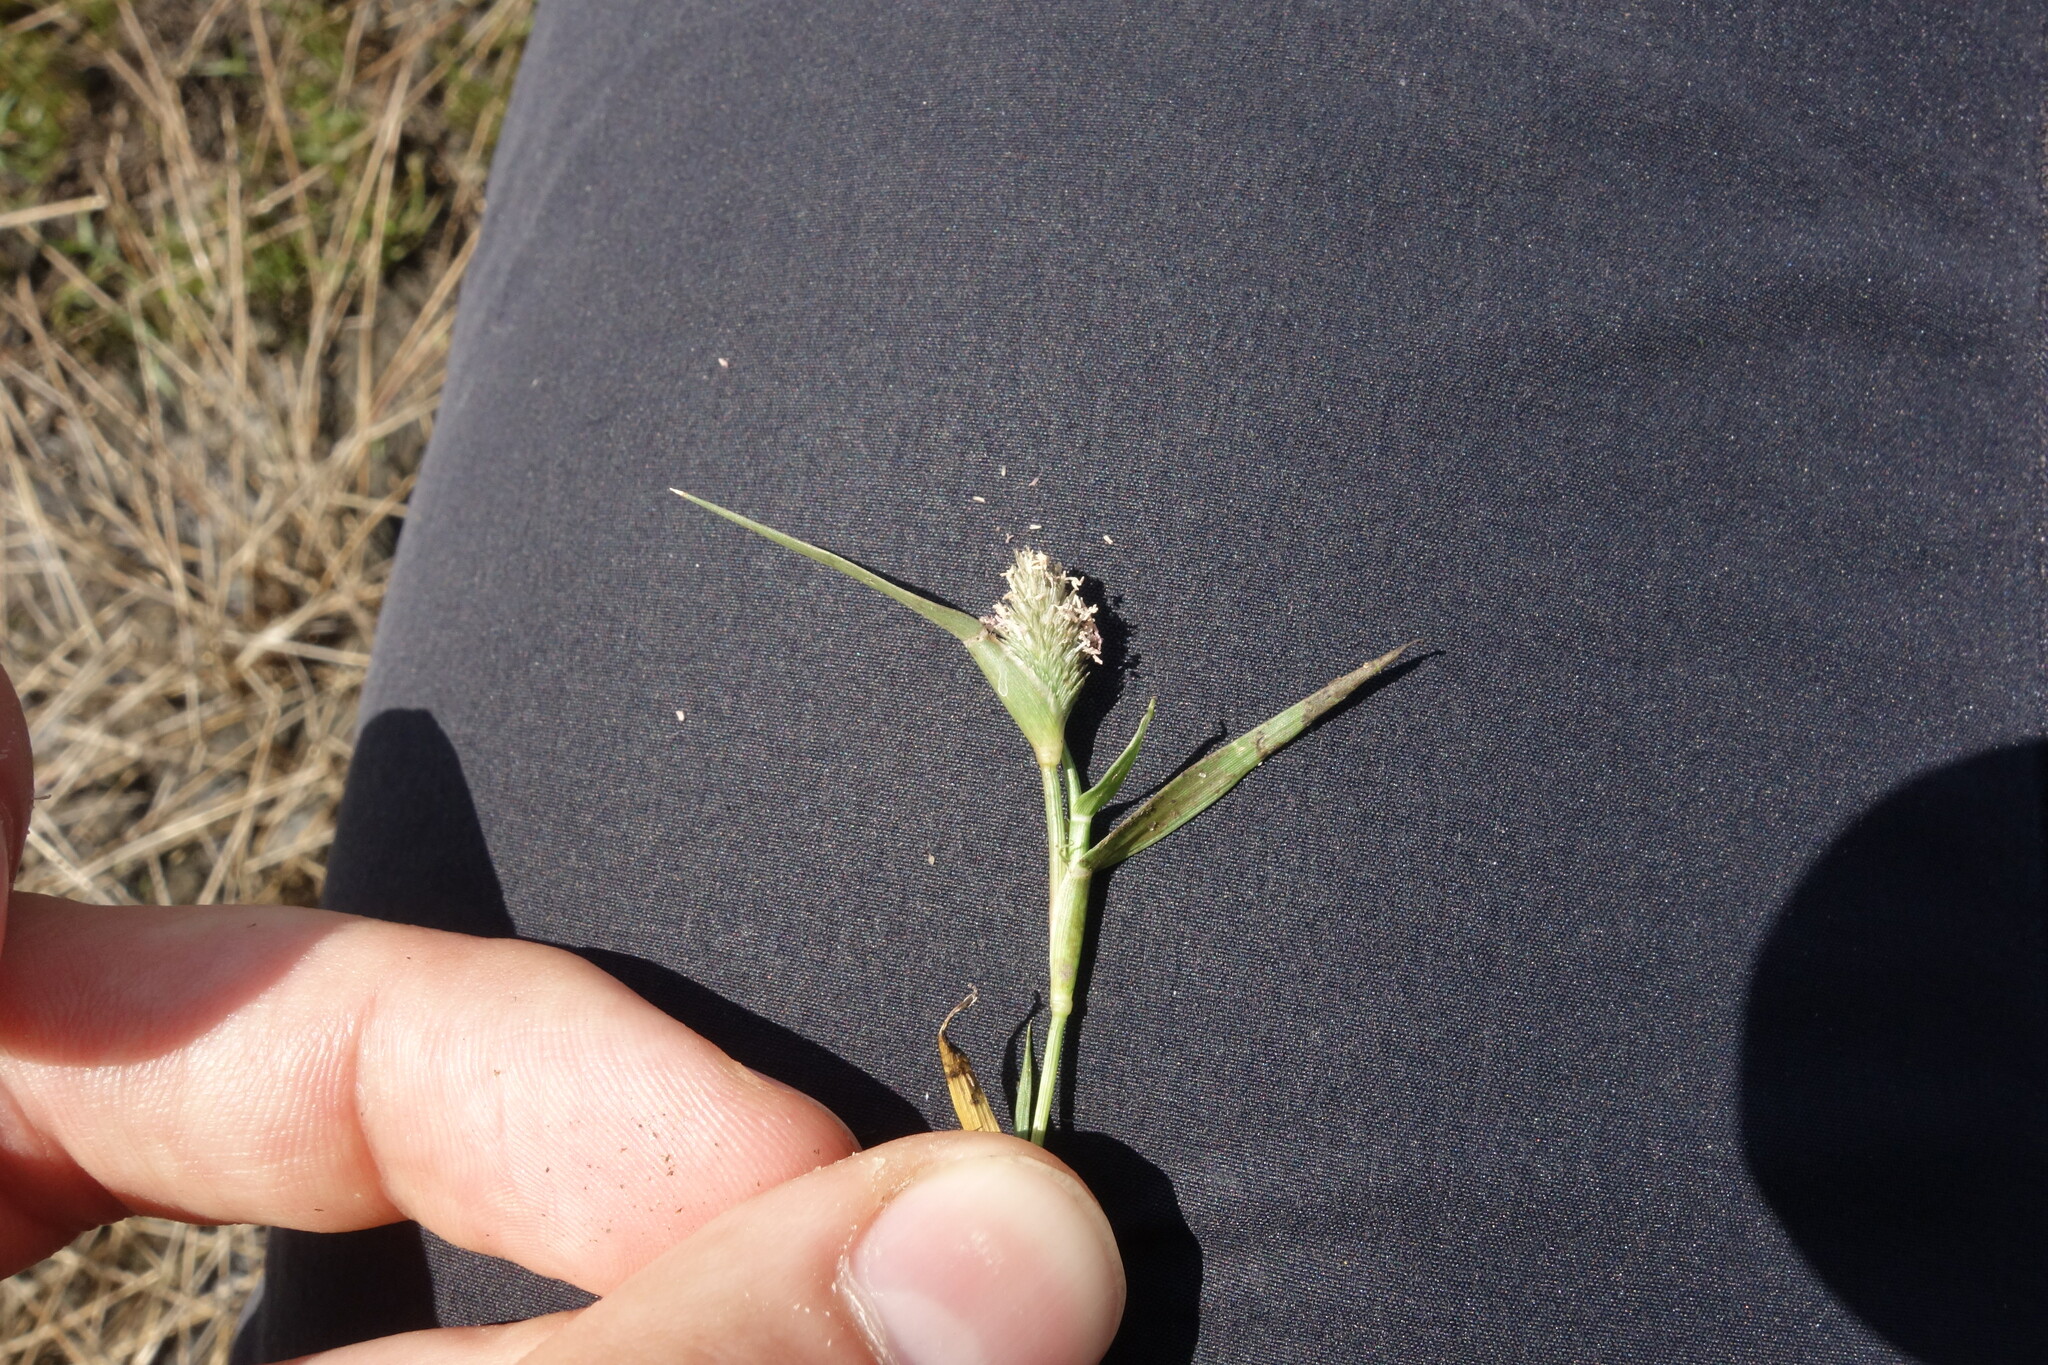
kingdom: Plantae
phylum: Tracheophyta
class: Liliopsida
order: Poales
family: Poaceae
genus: Sporobolus
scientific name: Sporobolus schoenoides
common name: Rush-like timothy
